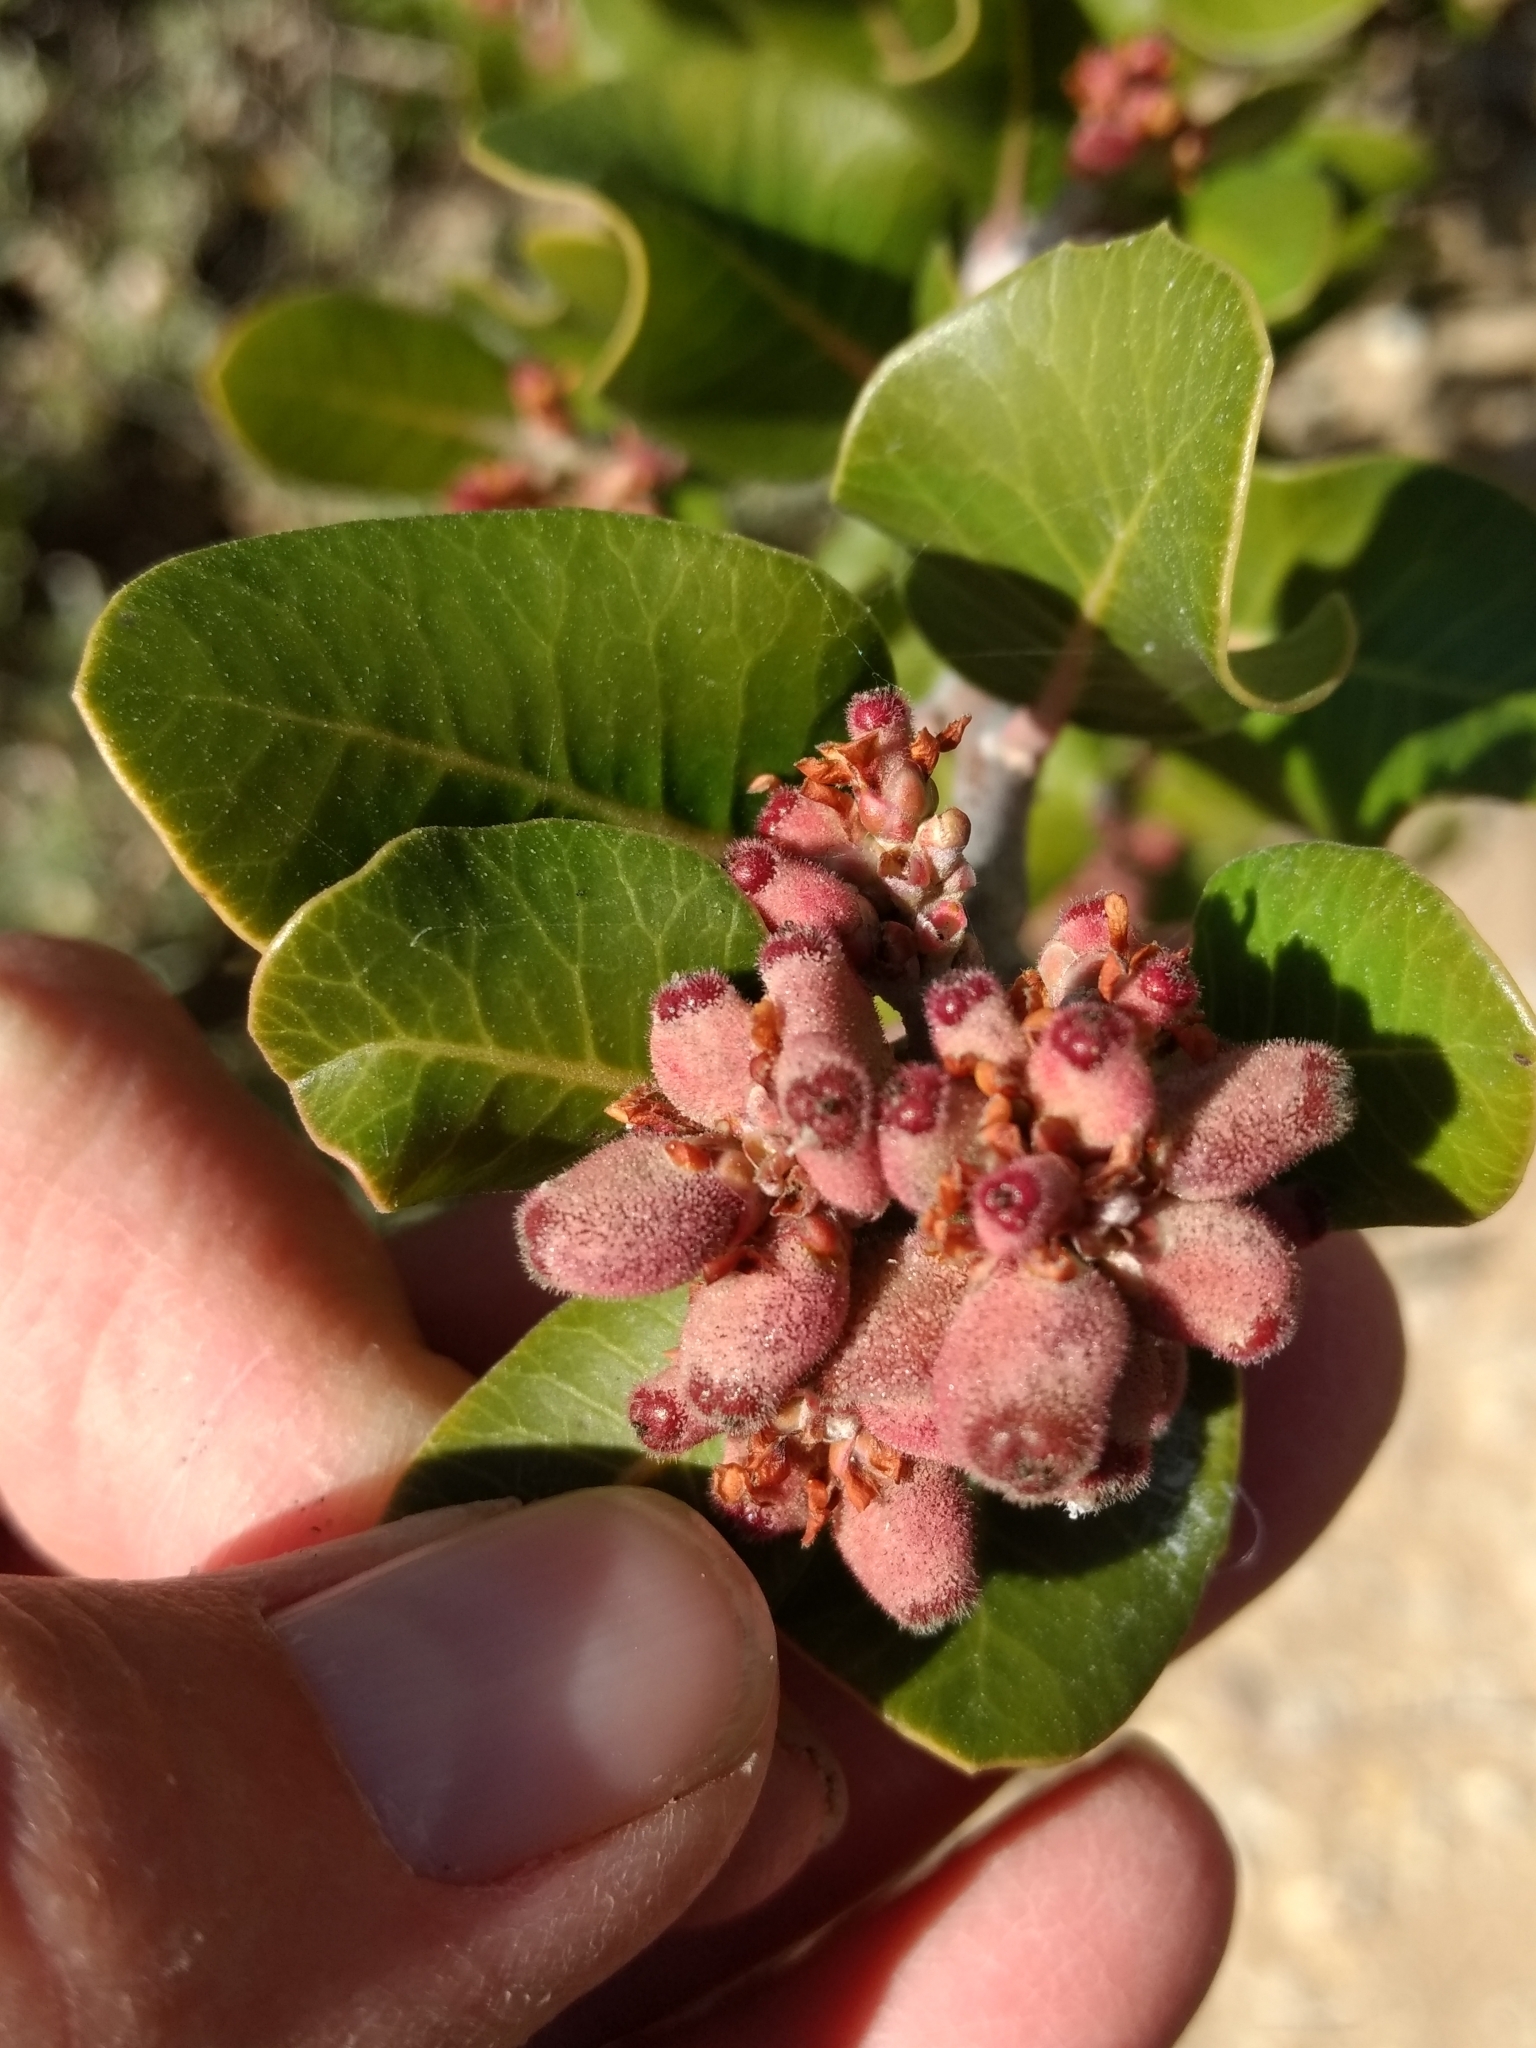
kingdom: Plantae
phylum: Tracheophyta
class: Magnoliopsida
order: Sapindales
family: Anacardiaceae
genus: Rhus
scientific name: Rhus integrifolia
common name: Lemonade sumac
